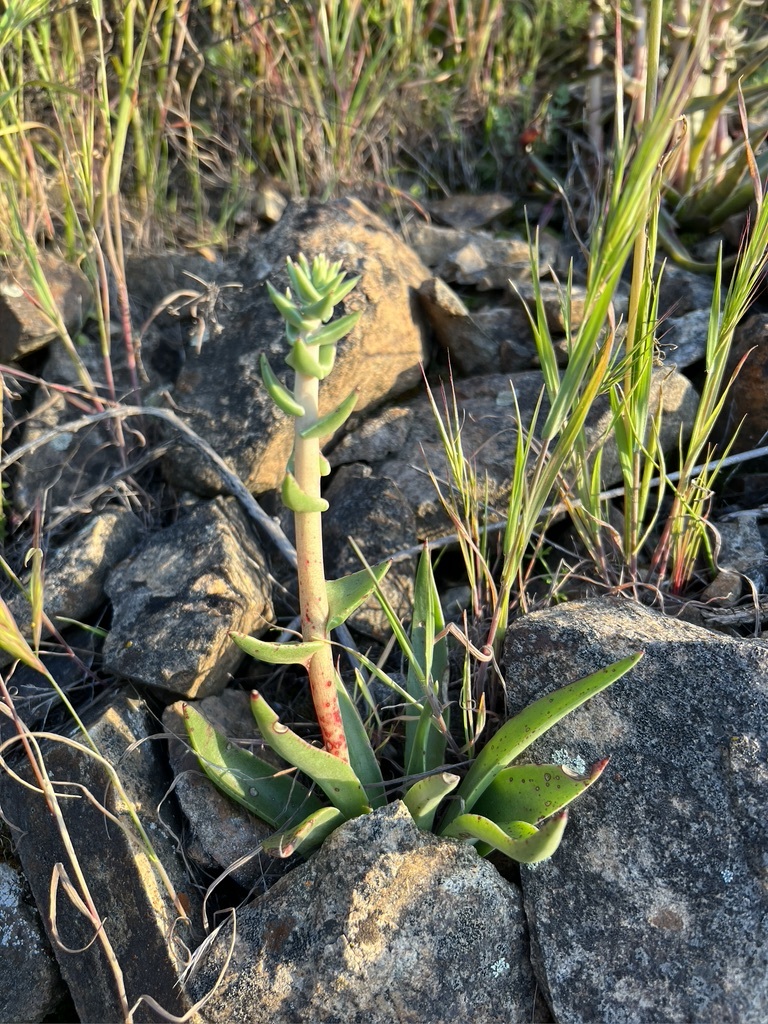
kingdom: Plantae
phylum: Tracheophyta
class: Magnoliopsida
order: Saxifragales
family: Crassulaceae
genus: Dudleya
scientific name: Dudleya lanceolata
